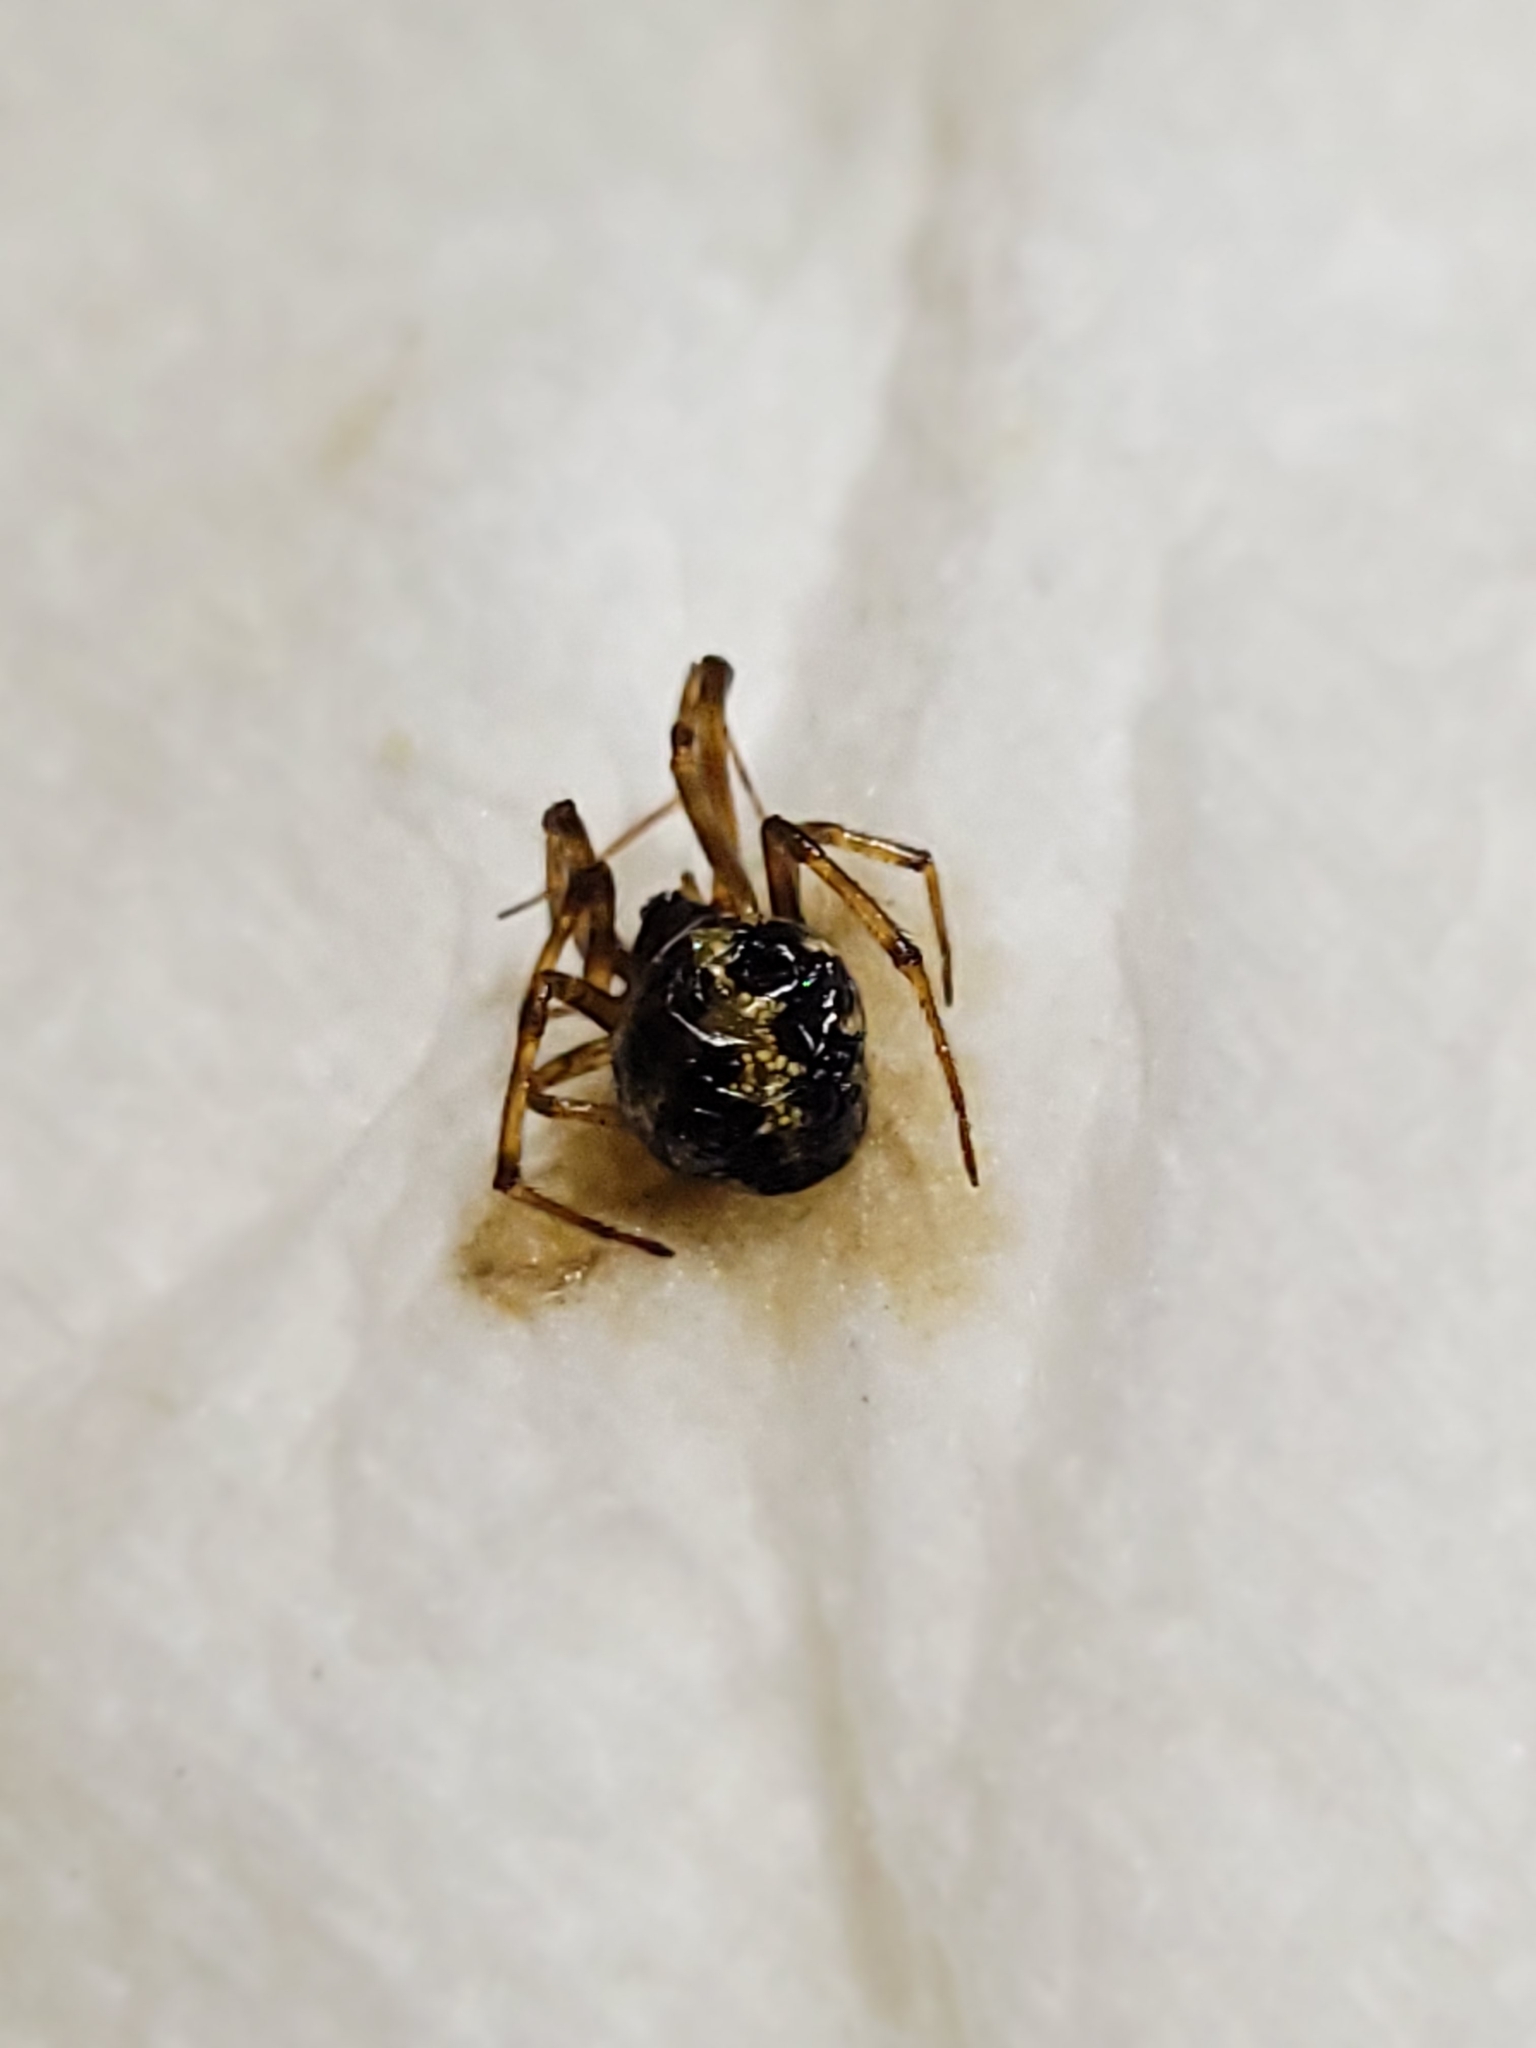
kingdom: Animalia
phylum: Arthropoda
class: Arachnida
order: Araneae
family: Theridiidae
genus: Steatoda
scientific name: Steatoda triangulosa
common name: Triangulate bud spider
